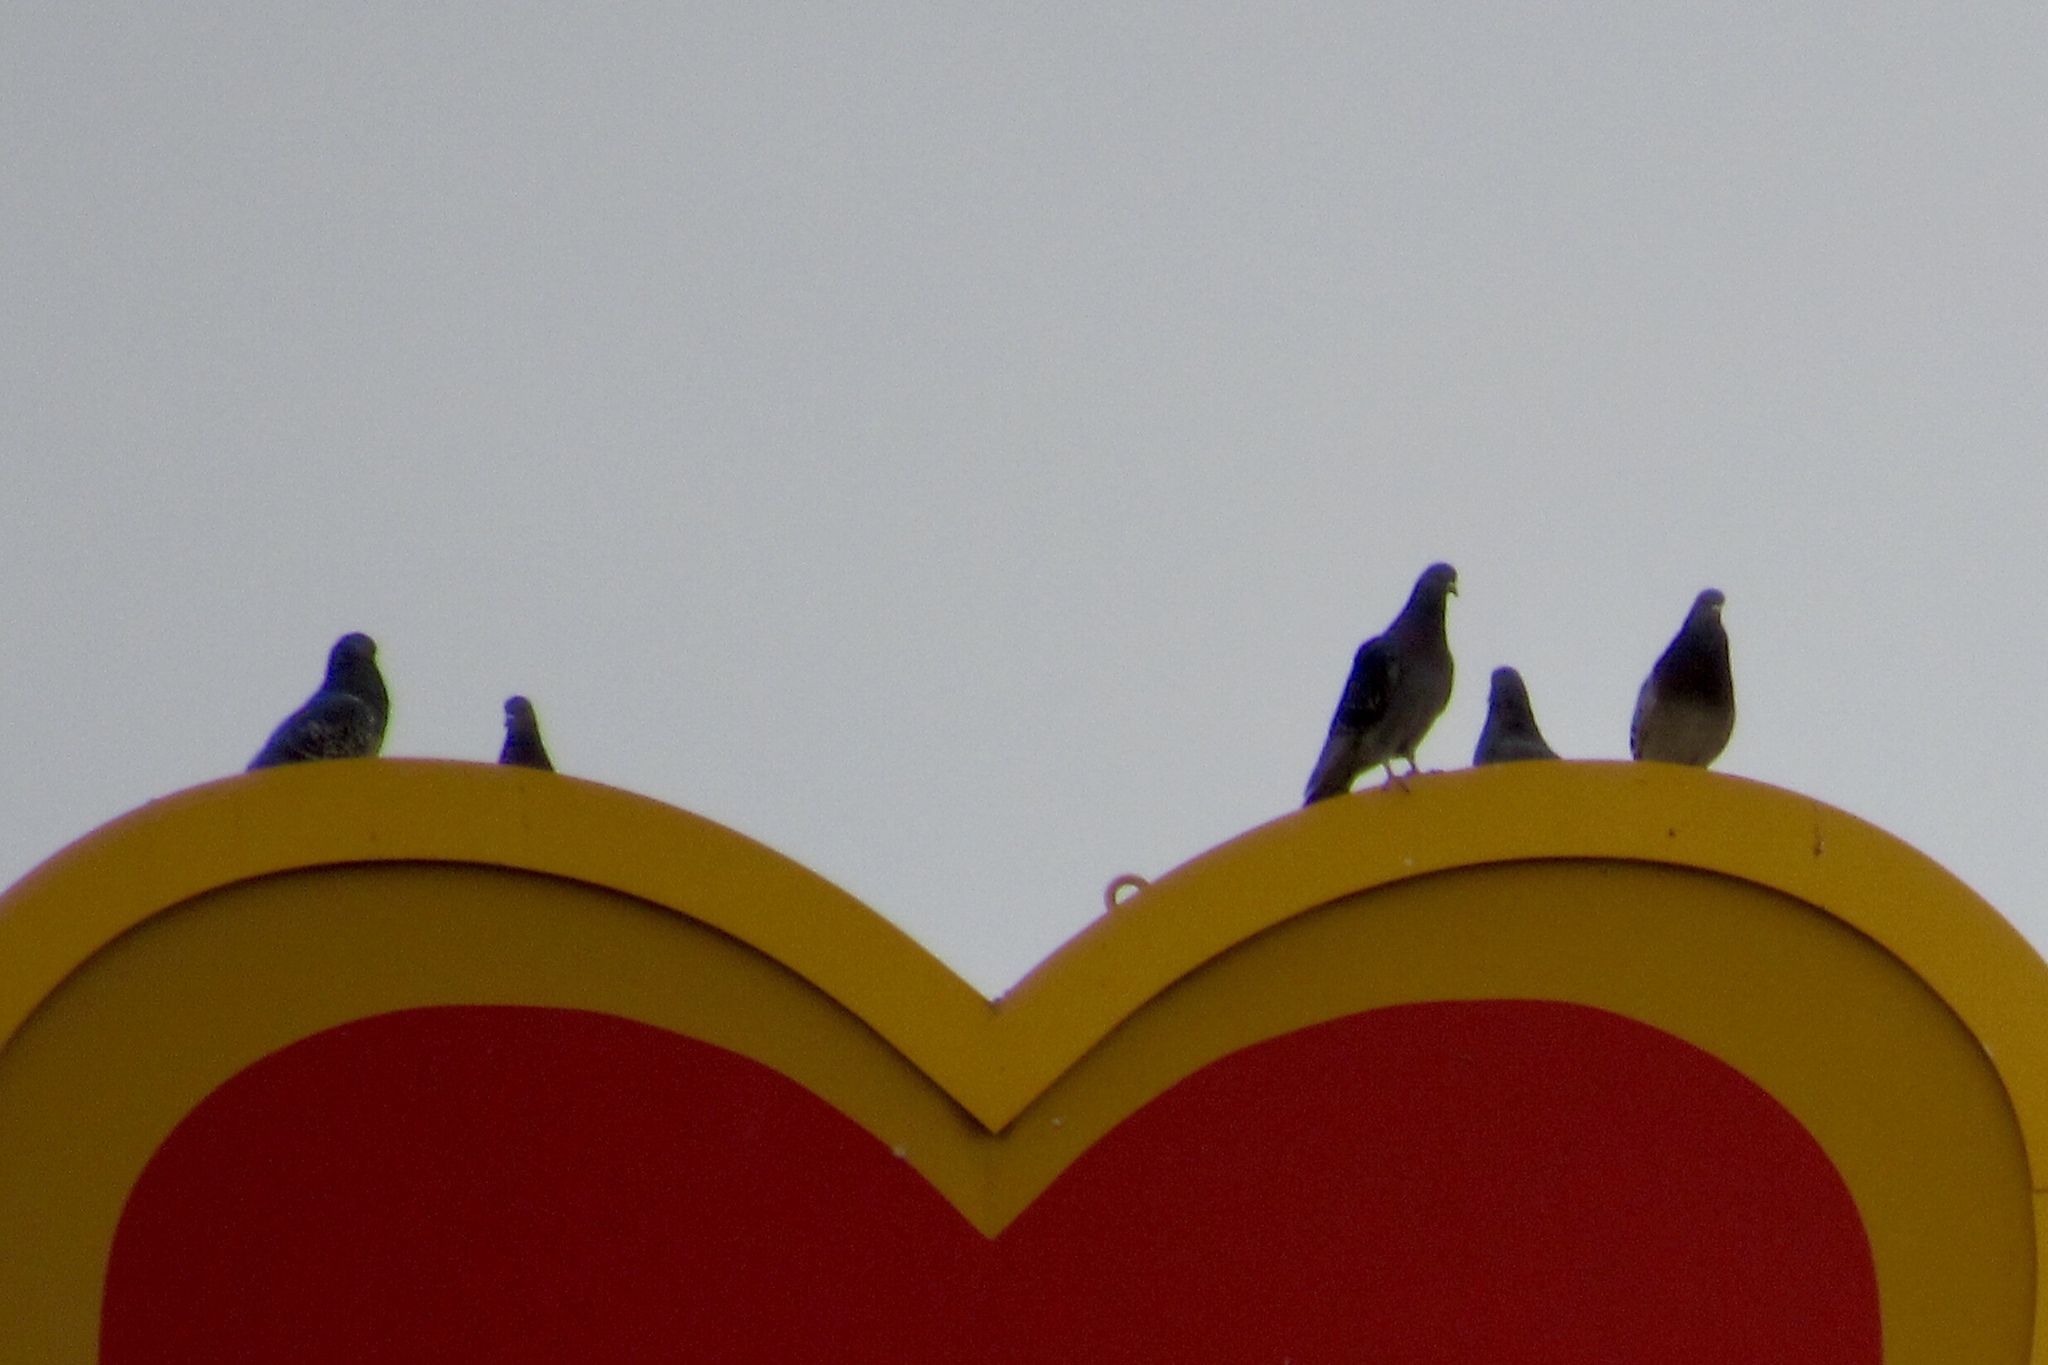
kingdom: Animalia
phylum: Chordata
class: Aves
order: Columbiformes
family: Columbidae
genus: Columba
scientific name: Columba livia
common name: Rock pigeon
